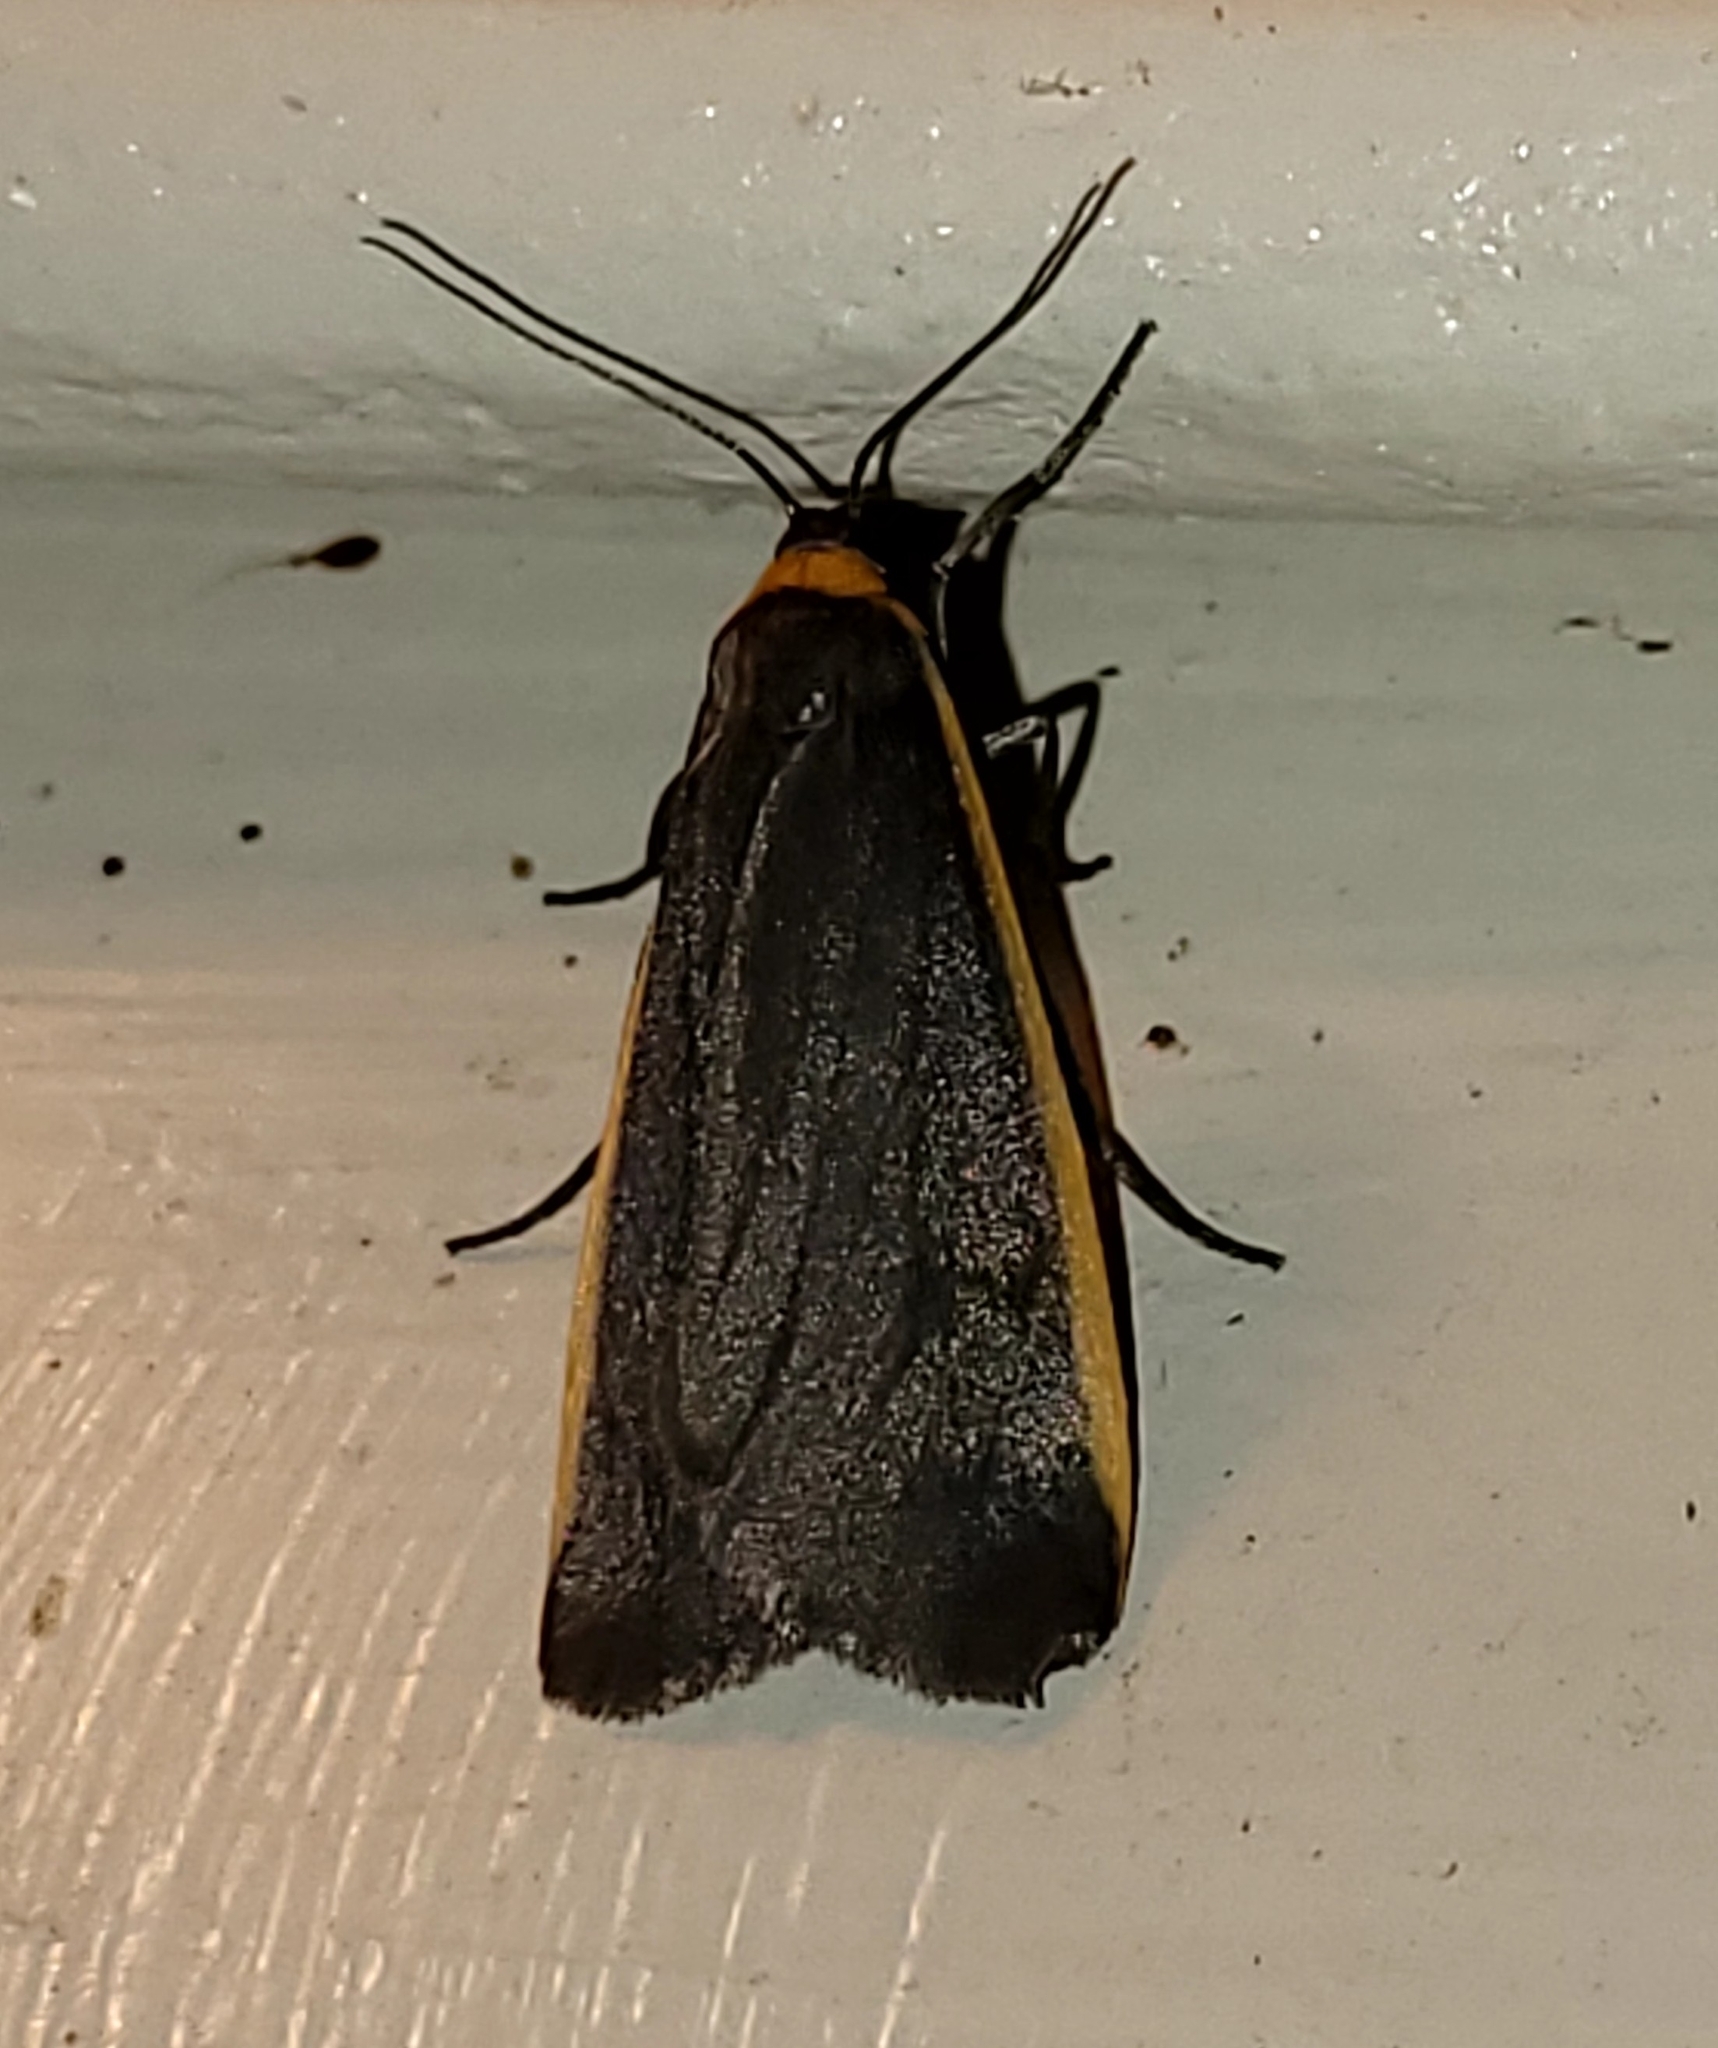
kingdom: Animalia
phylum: Arthropoda
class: Insecta
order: Lepidoptera
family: Erebidae
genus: Manulea
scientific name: Manulea bicolor
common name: Bicolored moth
